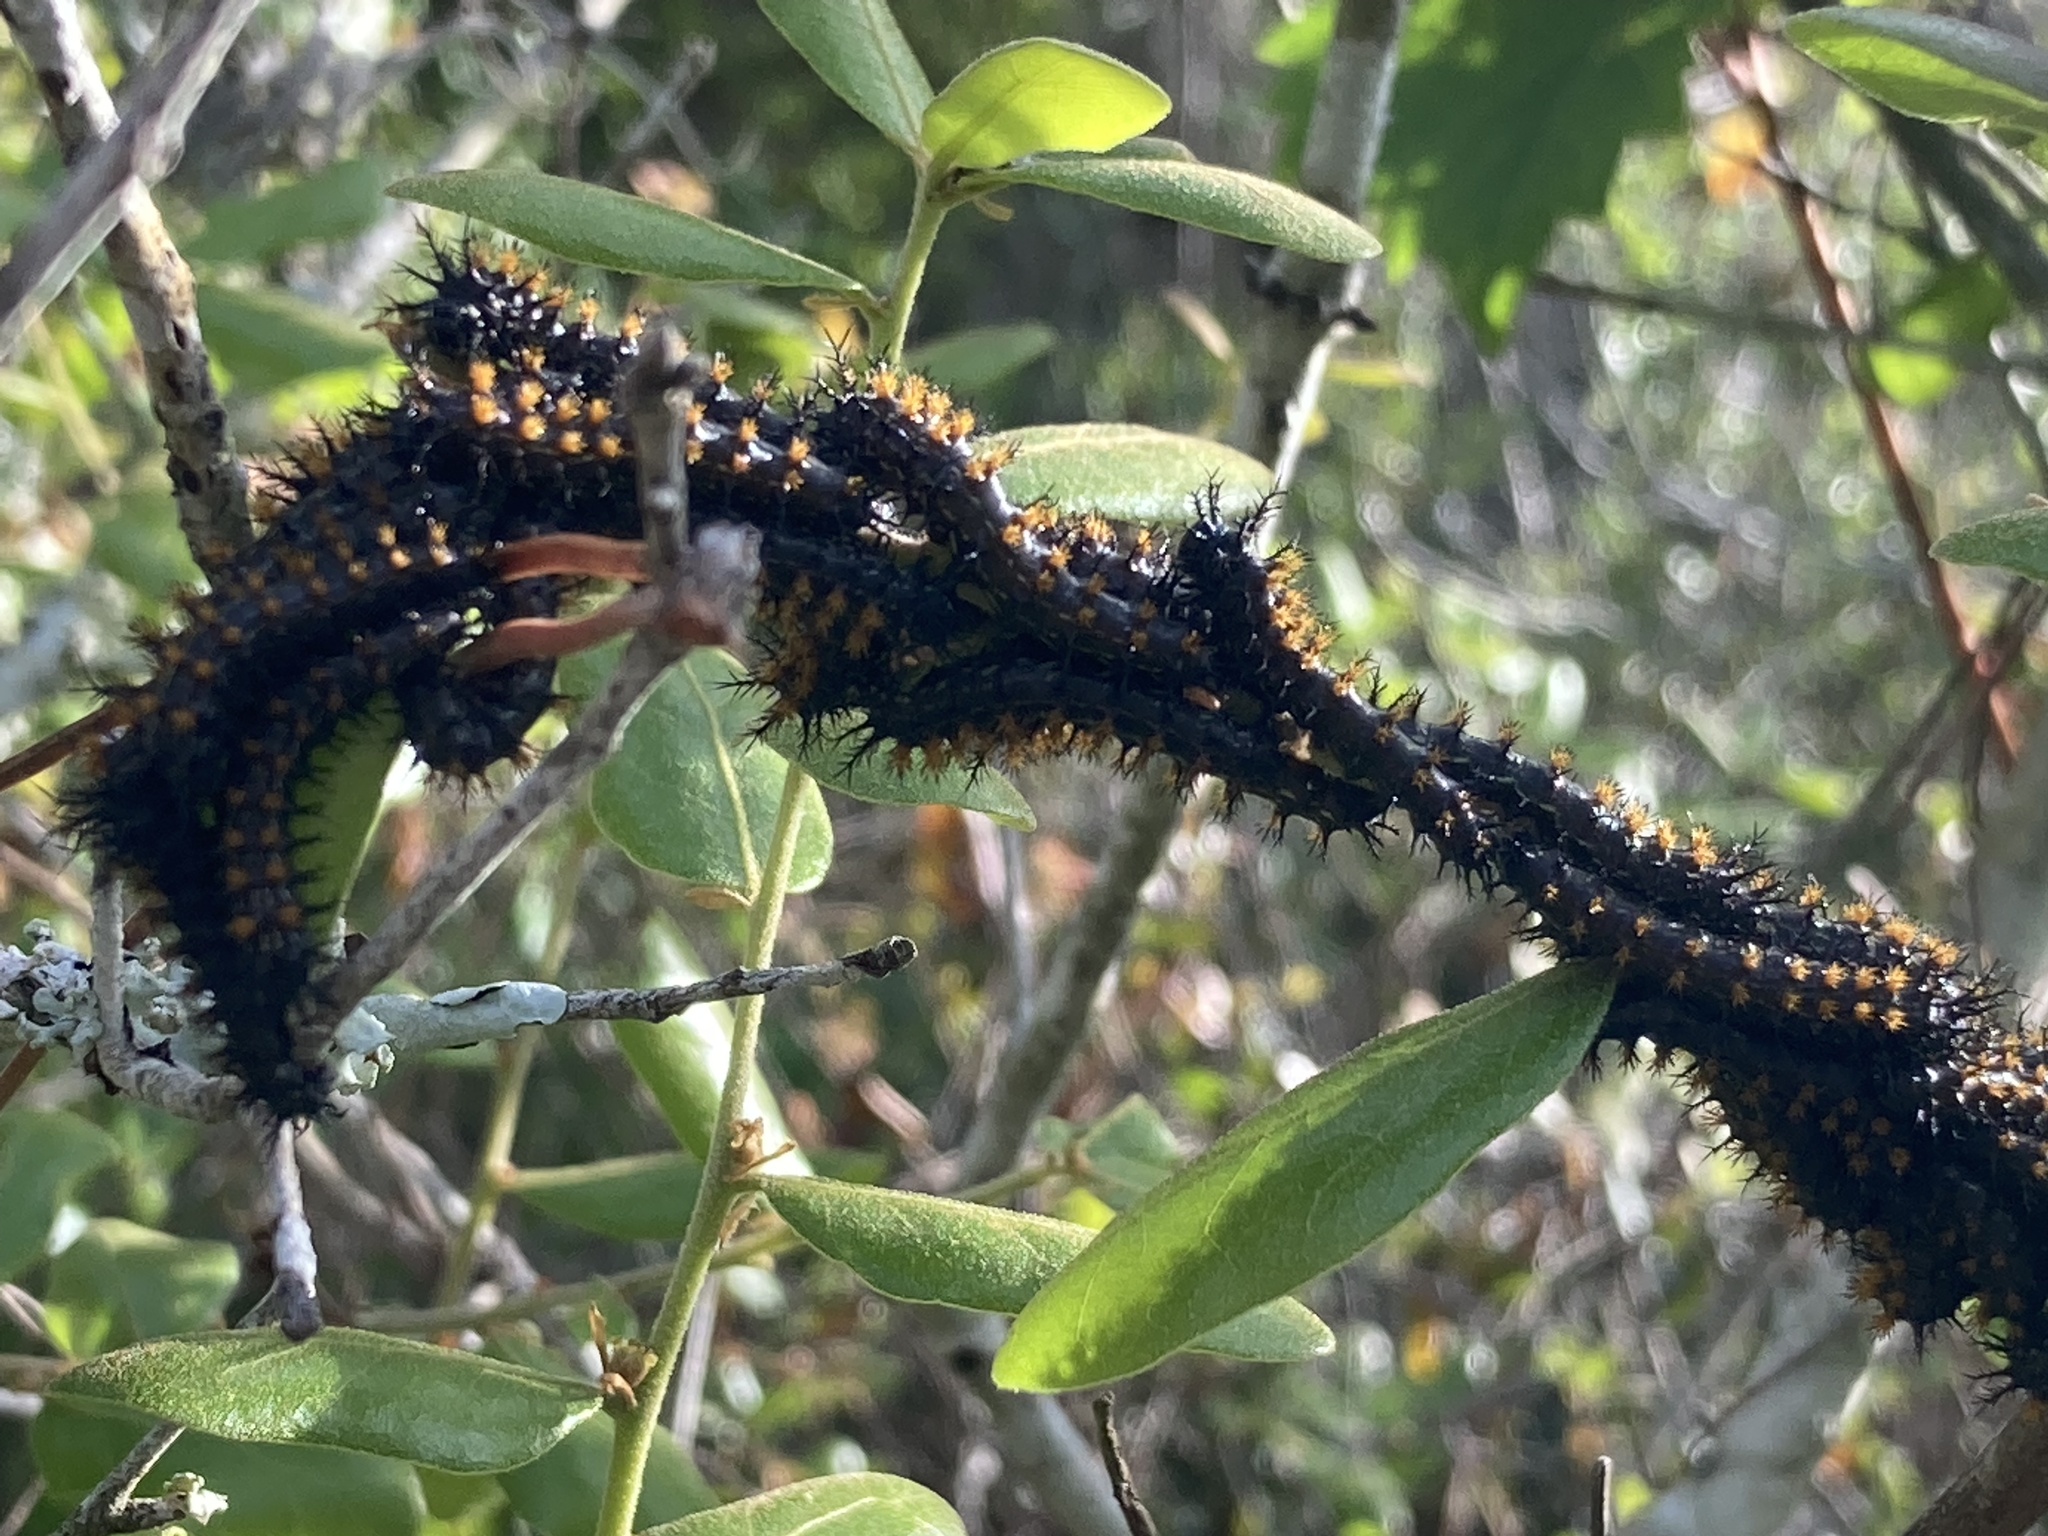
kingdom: Animalia
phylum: Arthropoda
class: Insecta
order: Lepidoptera
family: Saturniidae
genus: Hemileuca
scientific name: Hemileuca maia
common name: Eastern buckmoth
